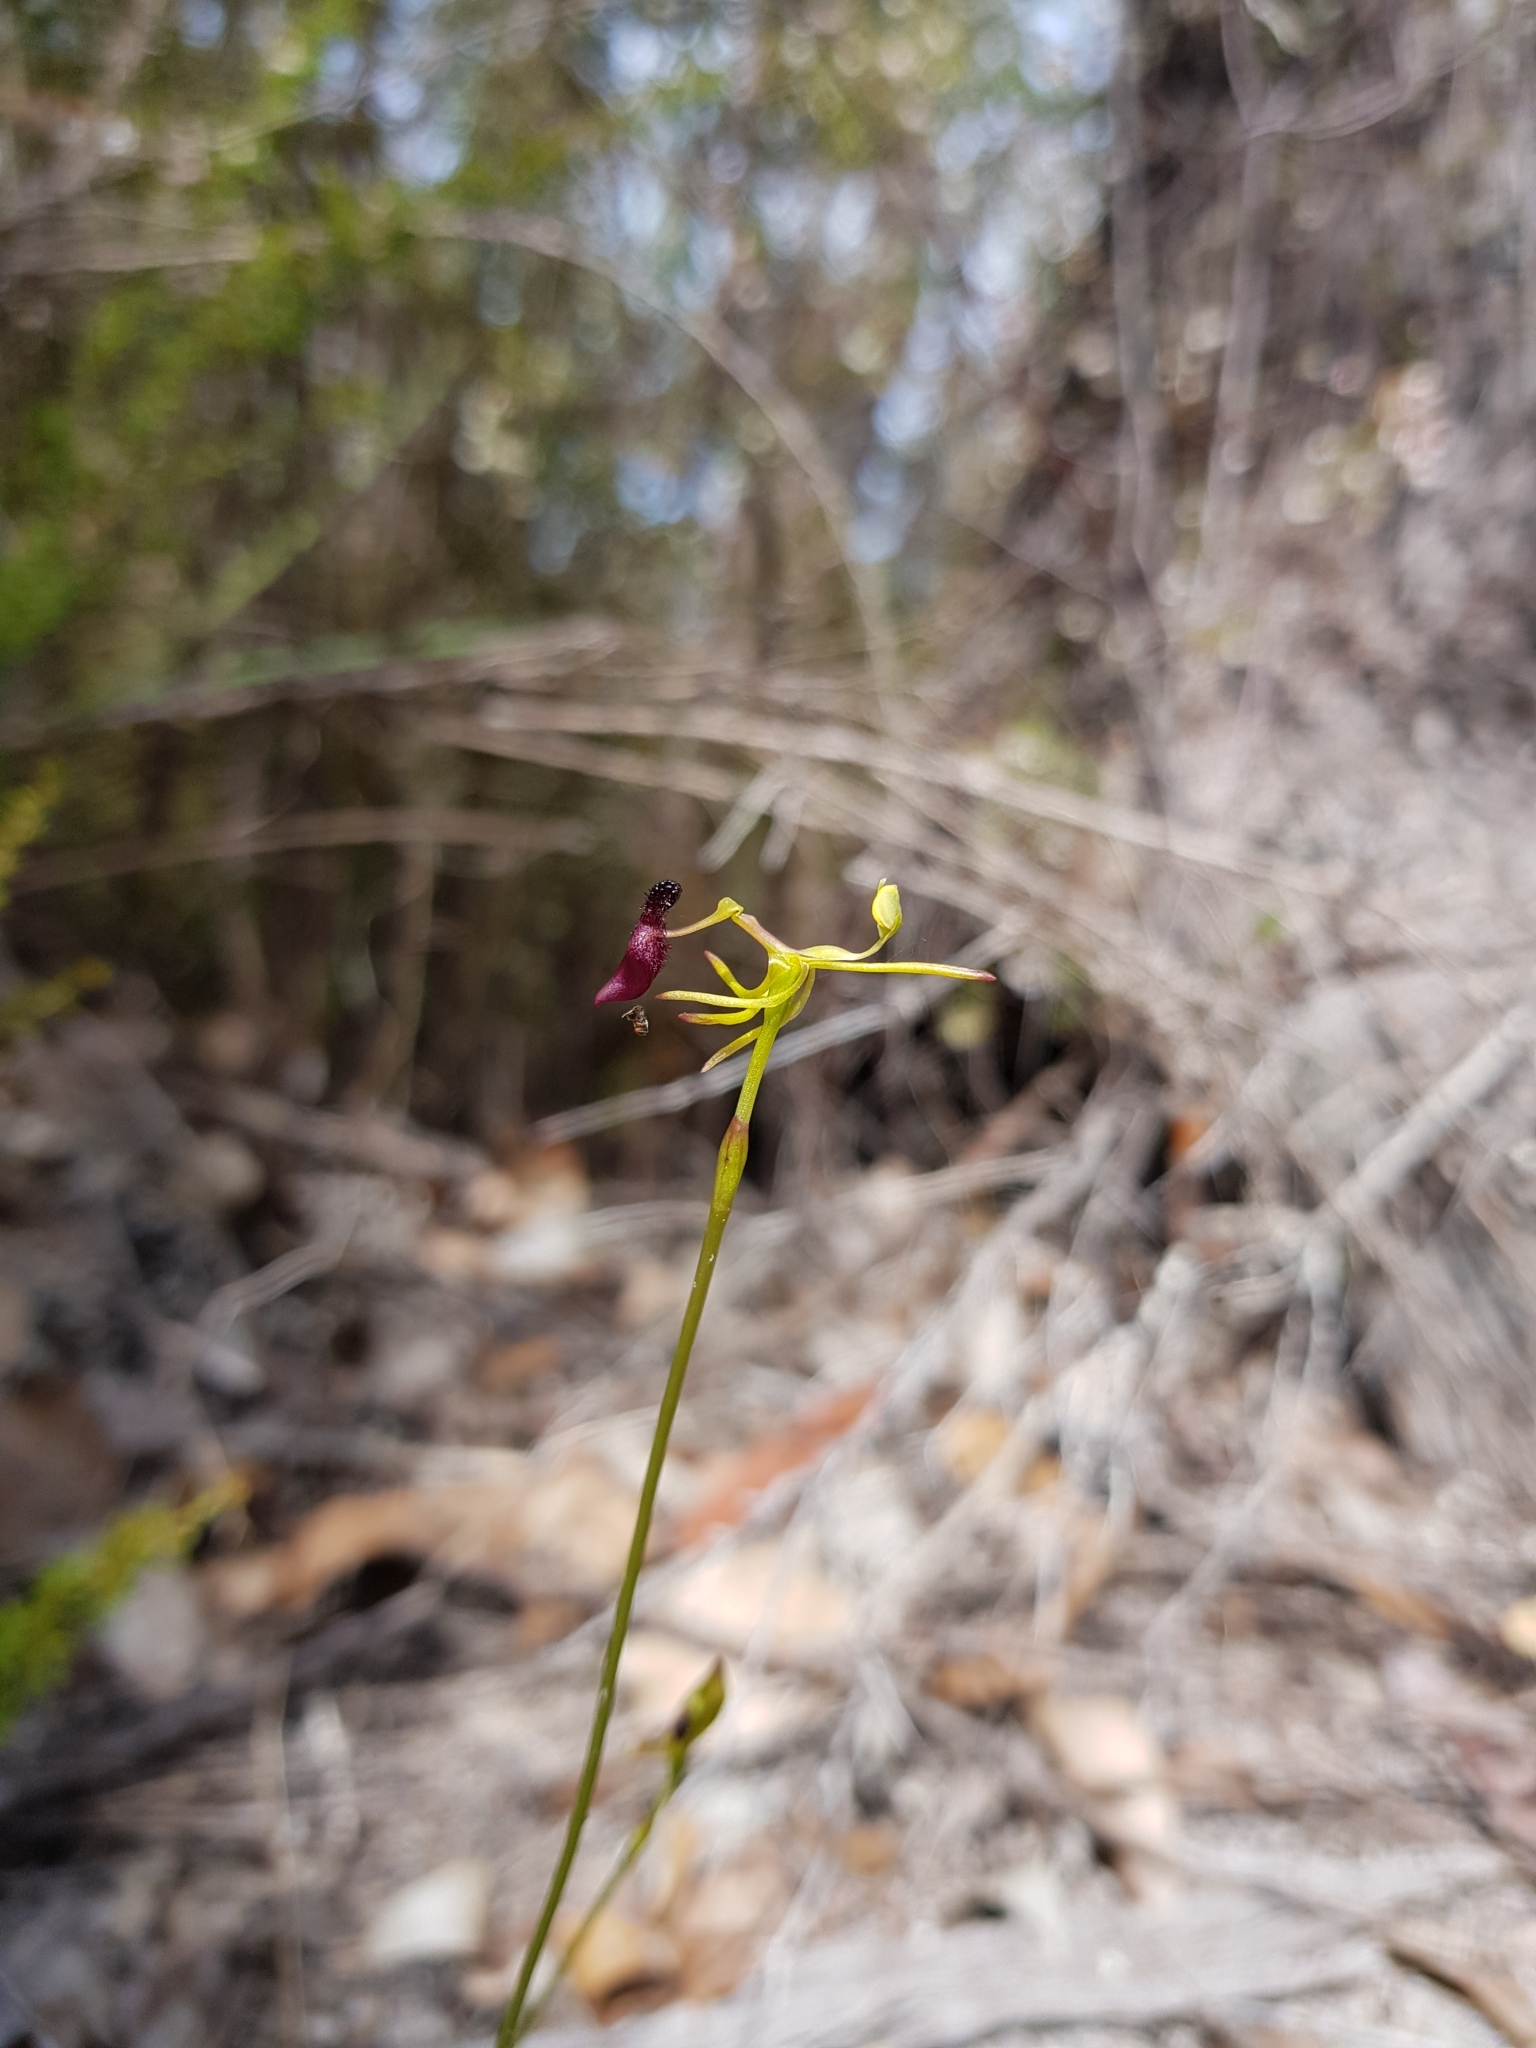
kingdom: Plantae
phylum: Tracheophyta
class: Liliopsida
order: Asparagales
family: Orchidaceae
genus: Drakaea
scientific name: Drakaea micrantha
